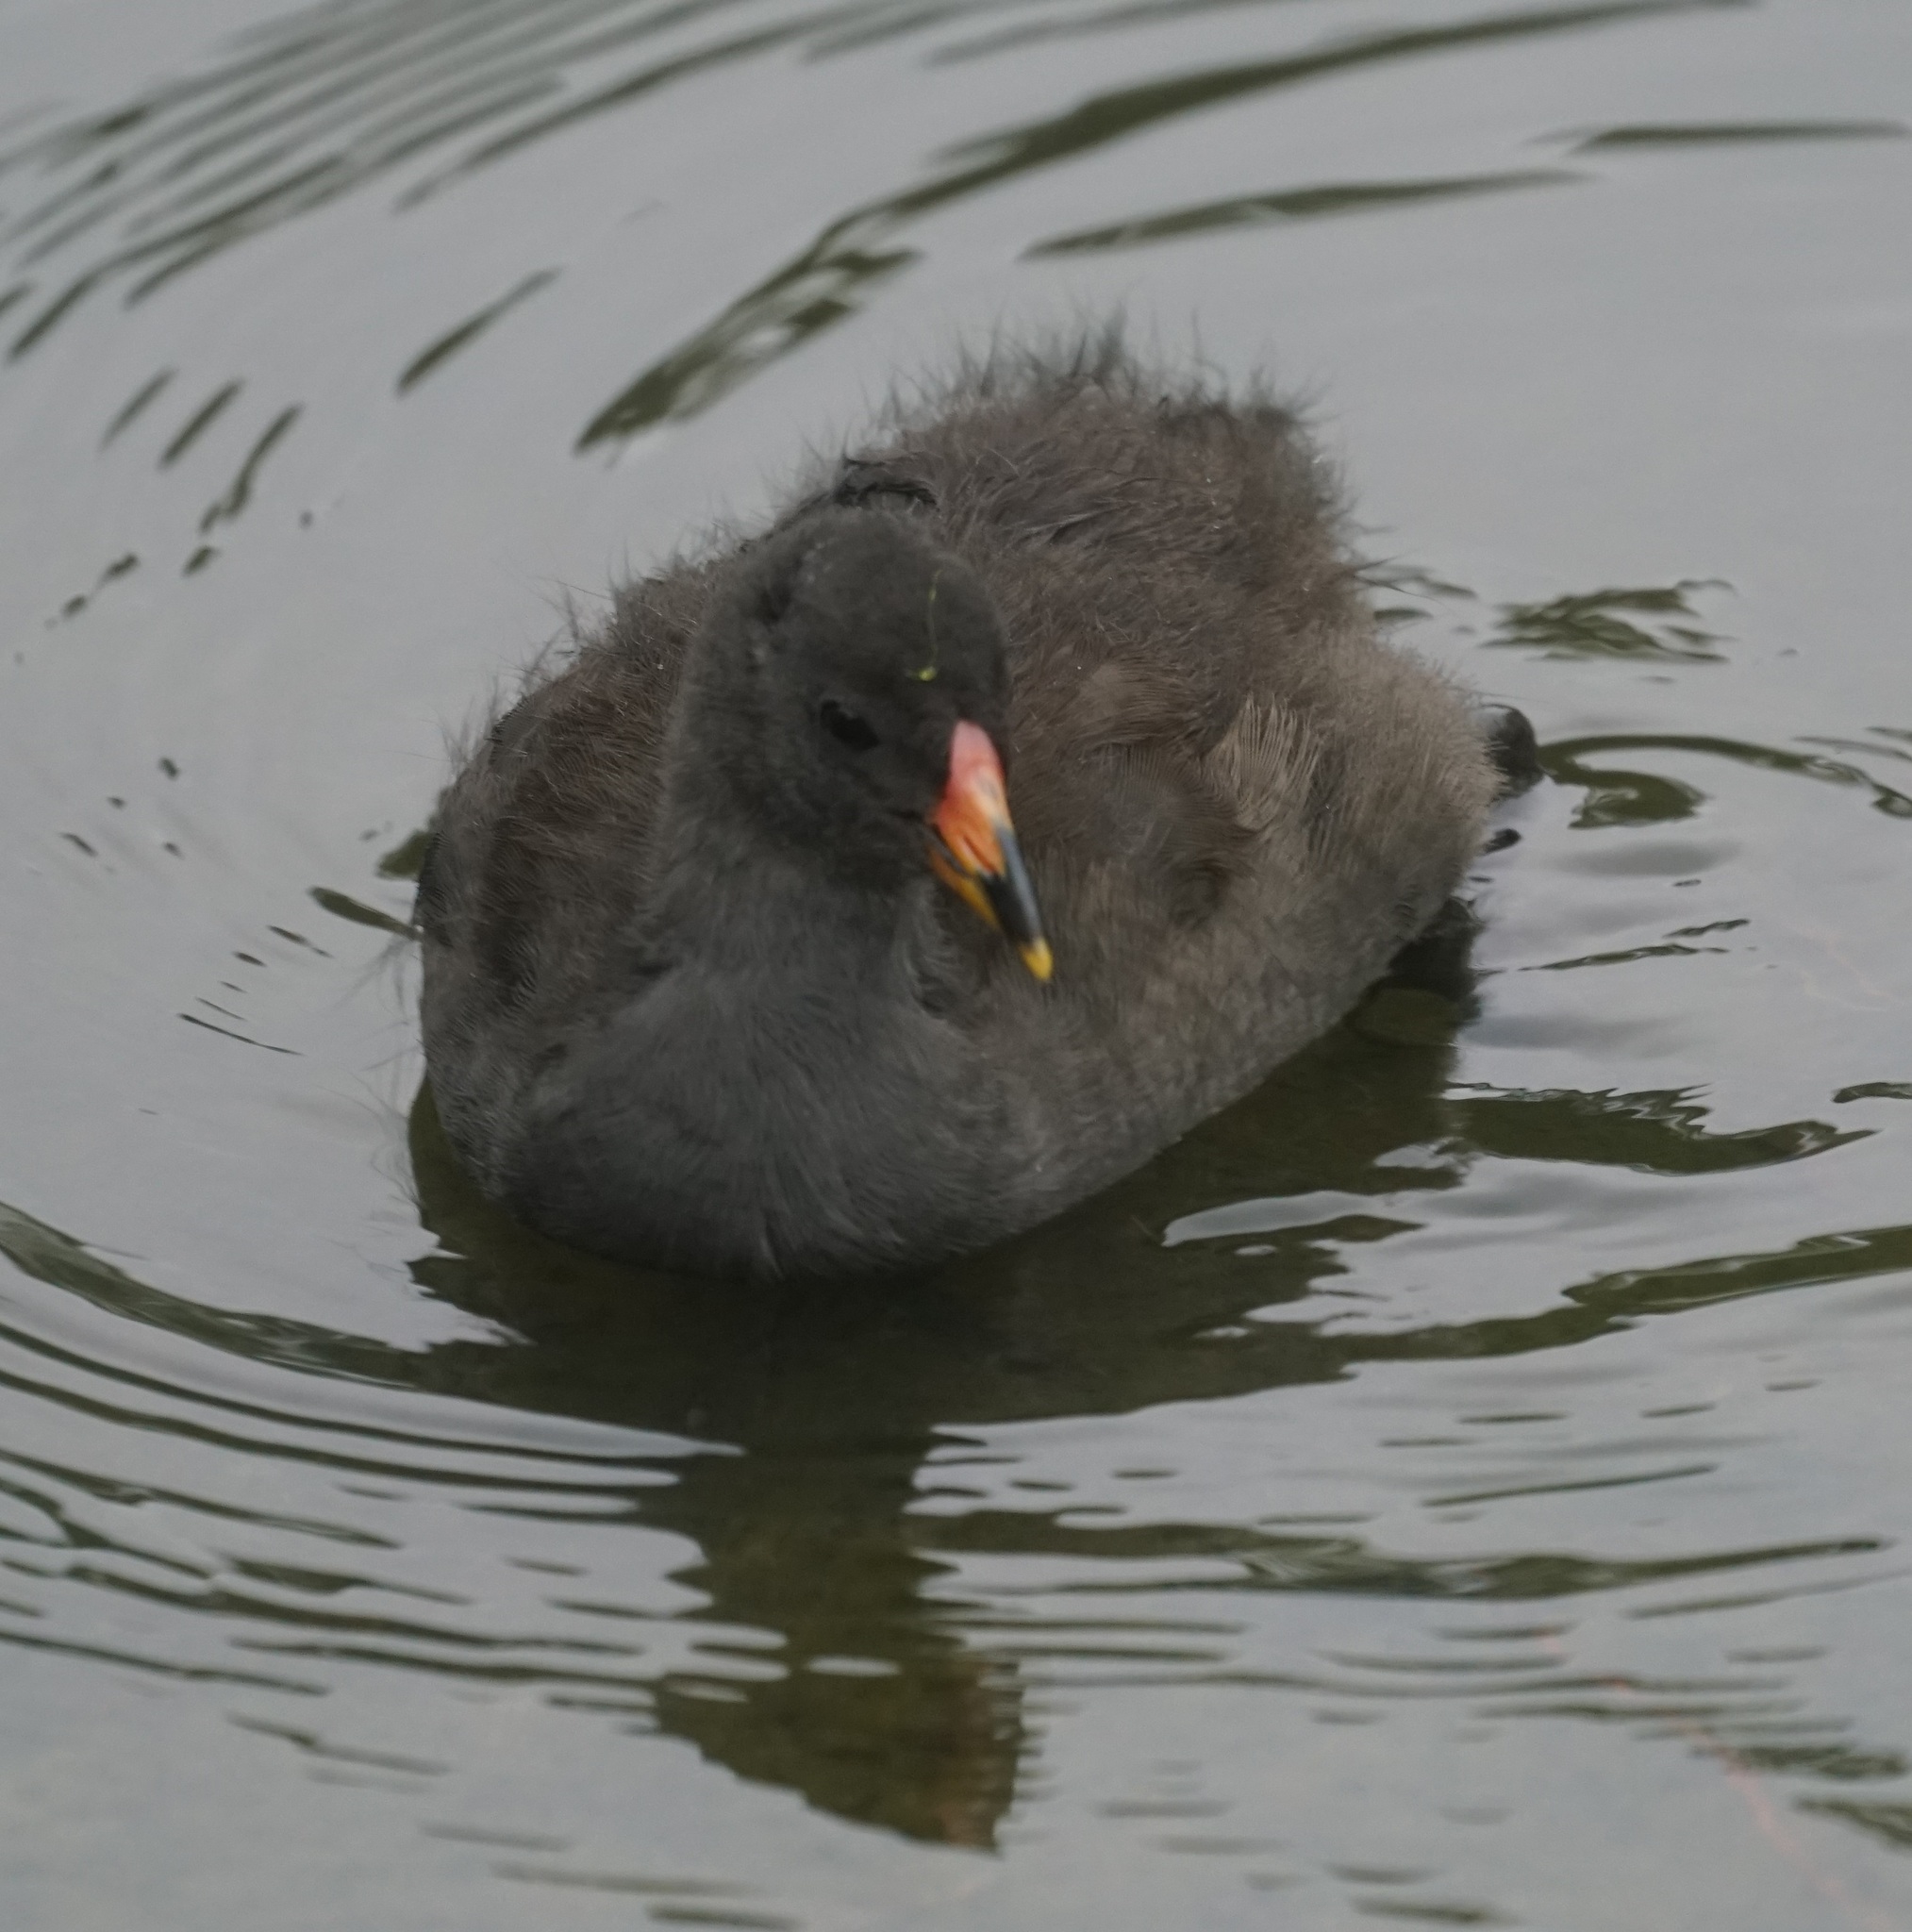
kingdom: Animalia
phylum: Chordata
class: Aves
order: Gruiformes
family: Rallidae
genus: Gallinula
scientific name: Gallinula tenebrosa
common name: Dusky moorhen
